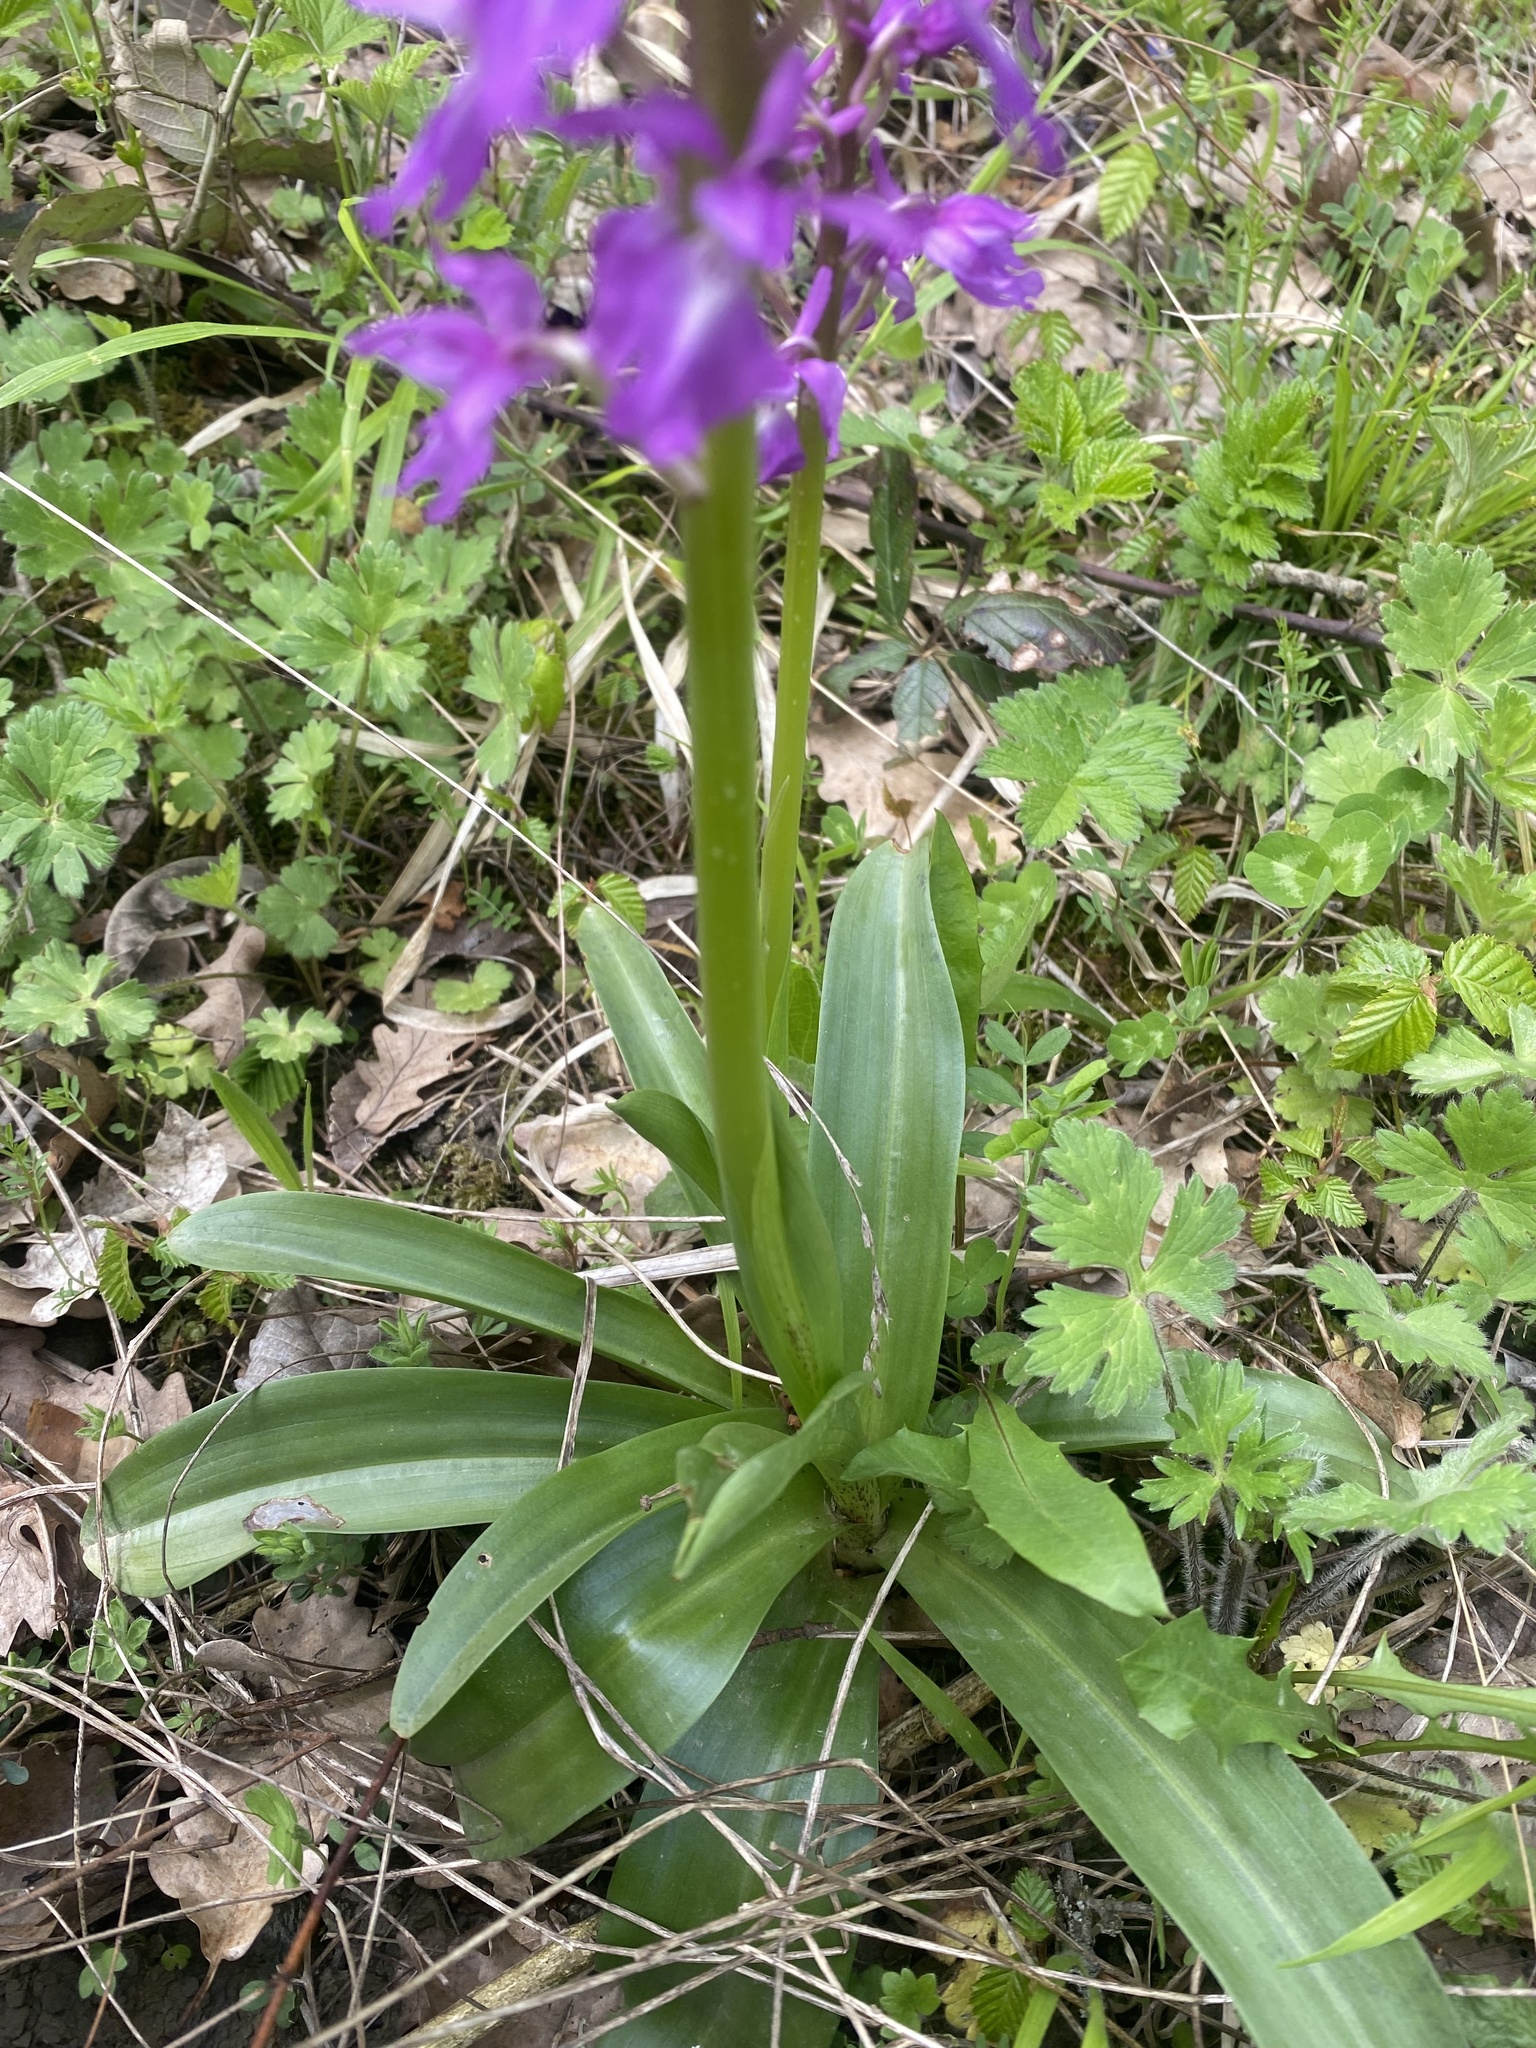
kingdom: Plantae
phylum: Tracheophyta
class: Liliopsida
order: Asparagales
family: Orchidaceae
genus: Orchis
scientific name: Orchis mascula
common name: Early-purple orchid
